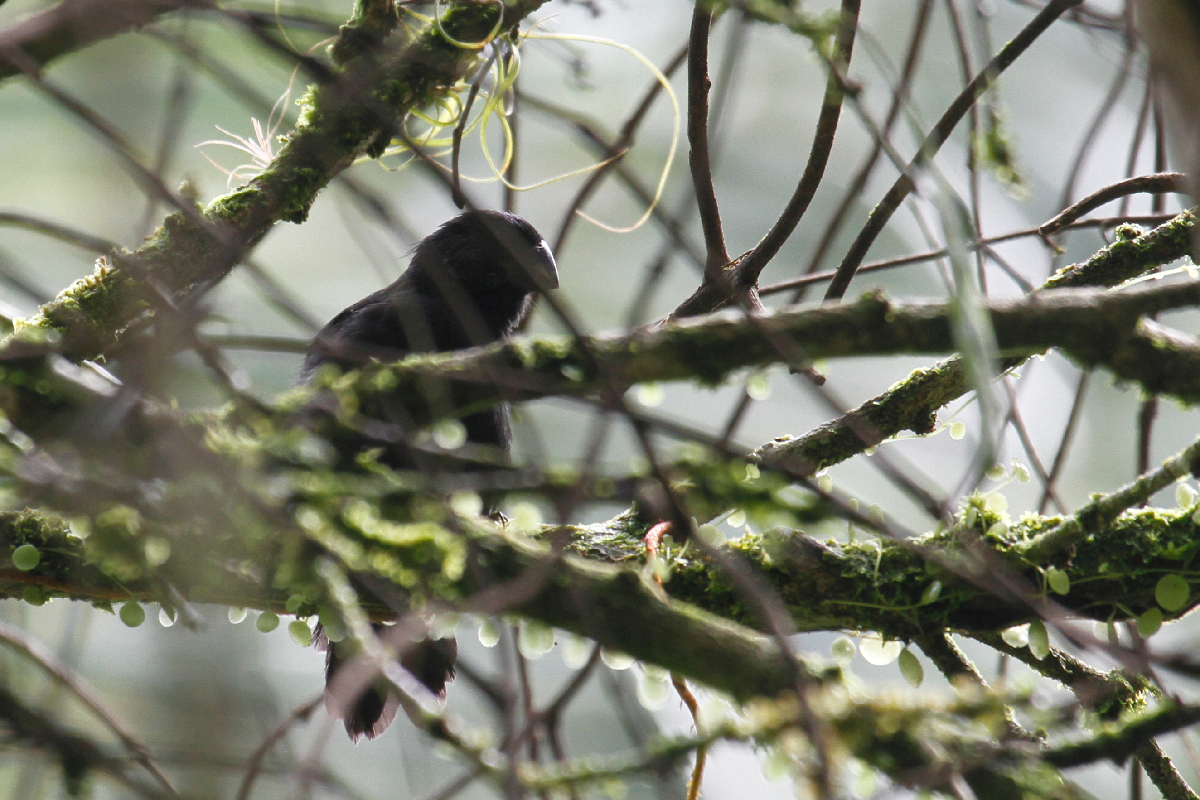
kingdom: Animalia
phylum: Chordata
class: Aves
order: Passeriformes
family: Thraupidae
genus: Sporophila
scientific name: Sporophila funerea
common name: Thick-billed seed-finch
